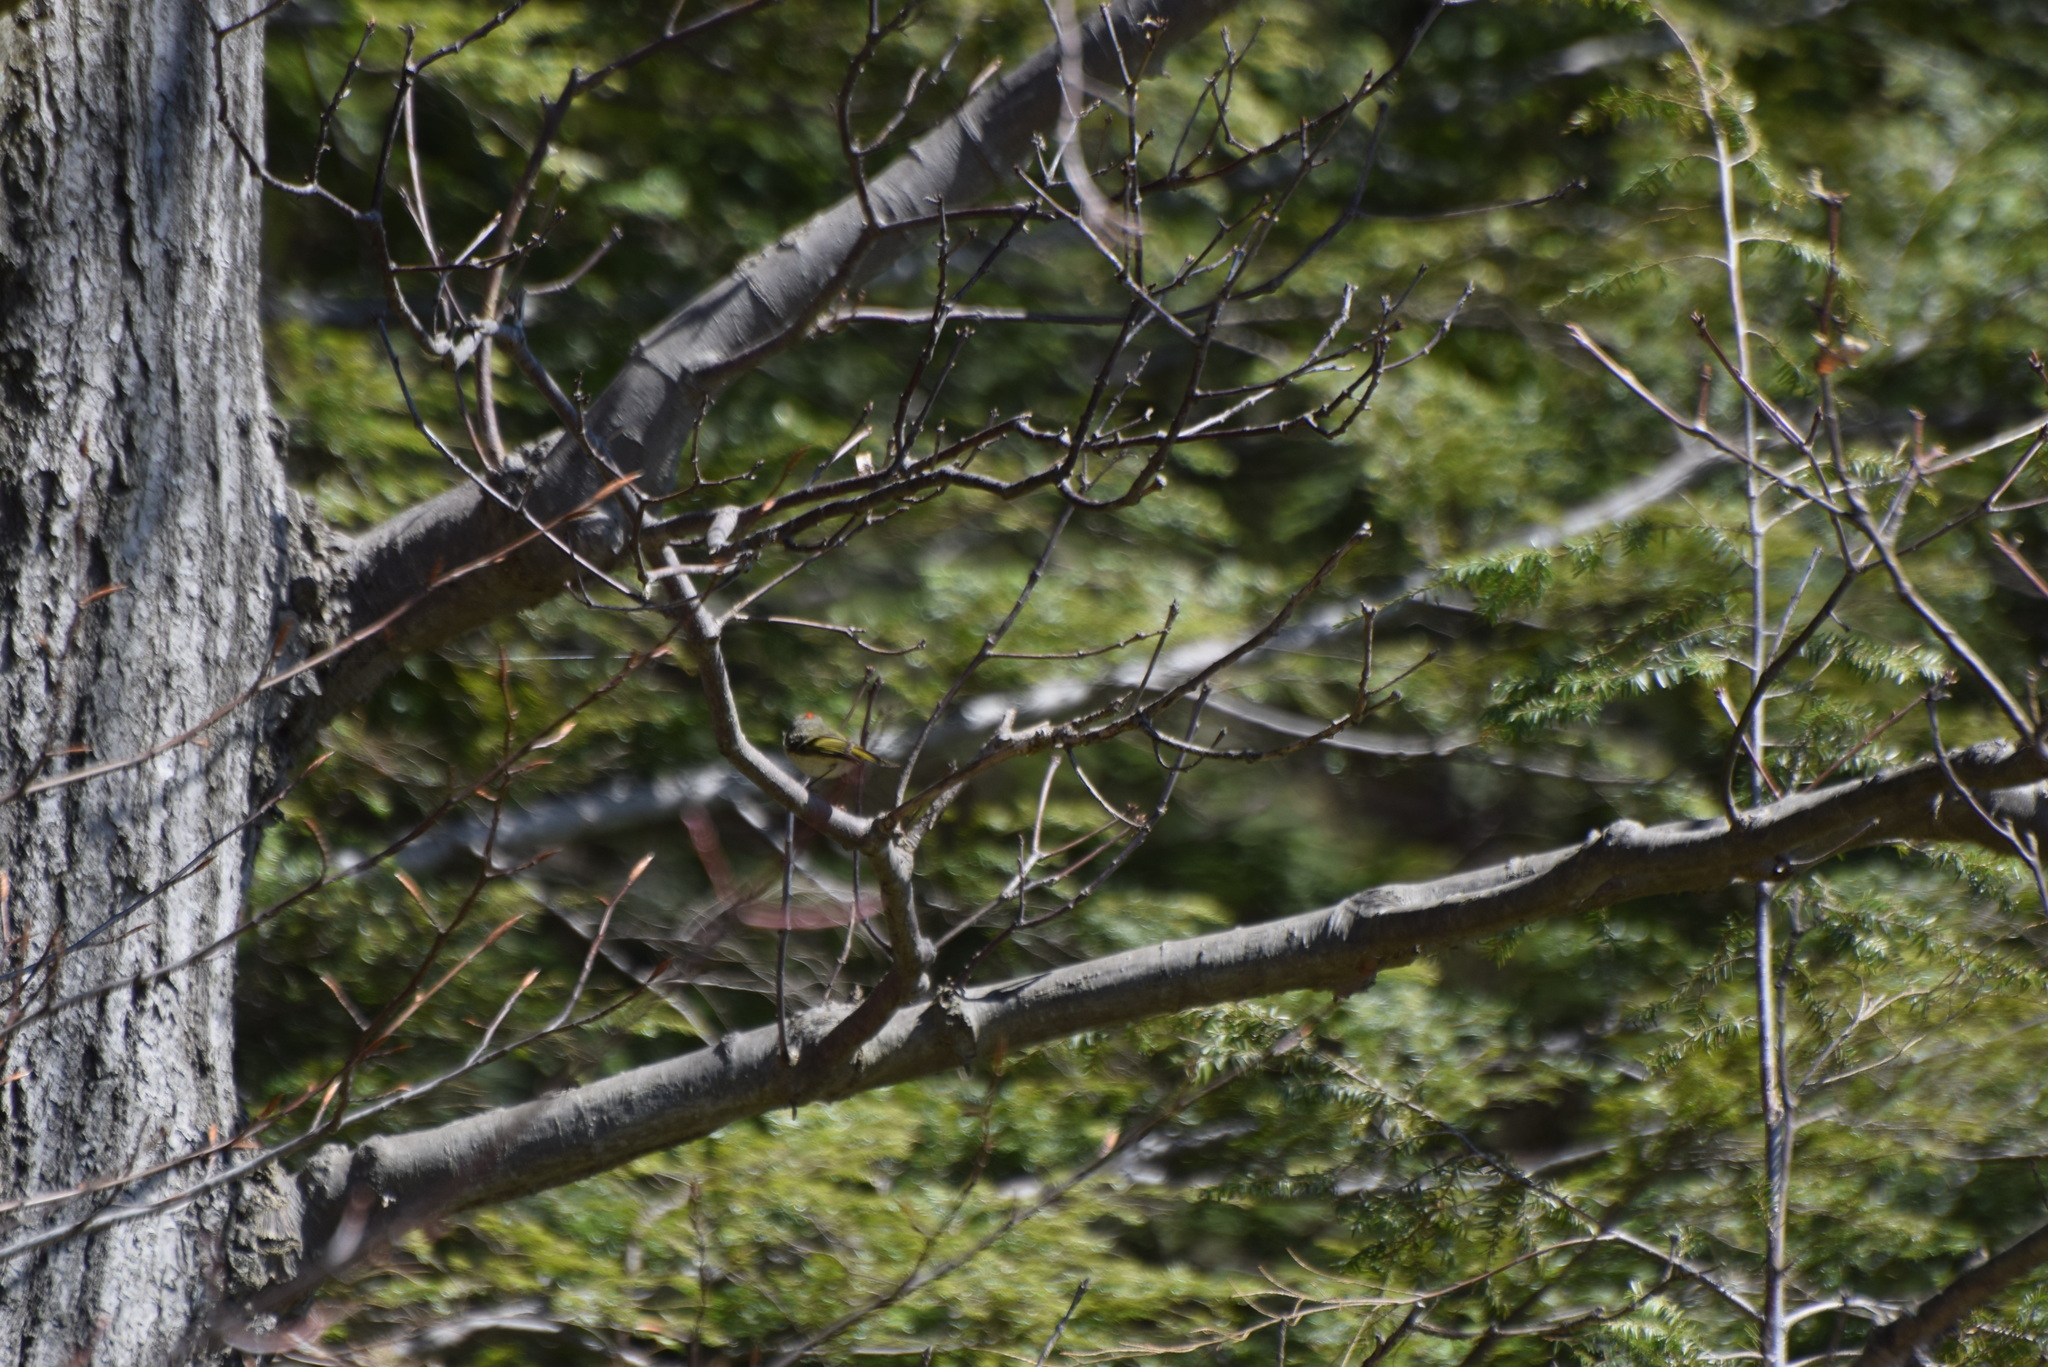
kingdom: Animalia
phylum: Chordata
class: Aves
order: Passeriformes
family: Regulidae
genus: Regulus
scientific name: Regulus calendula
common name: Ruby-crowned kinglet
